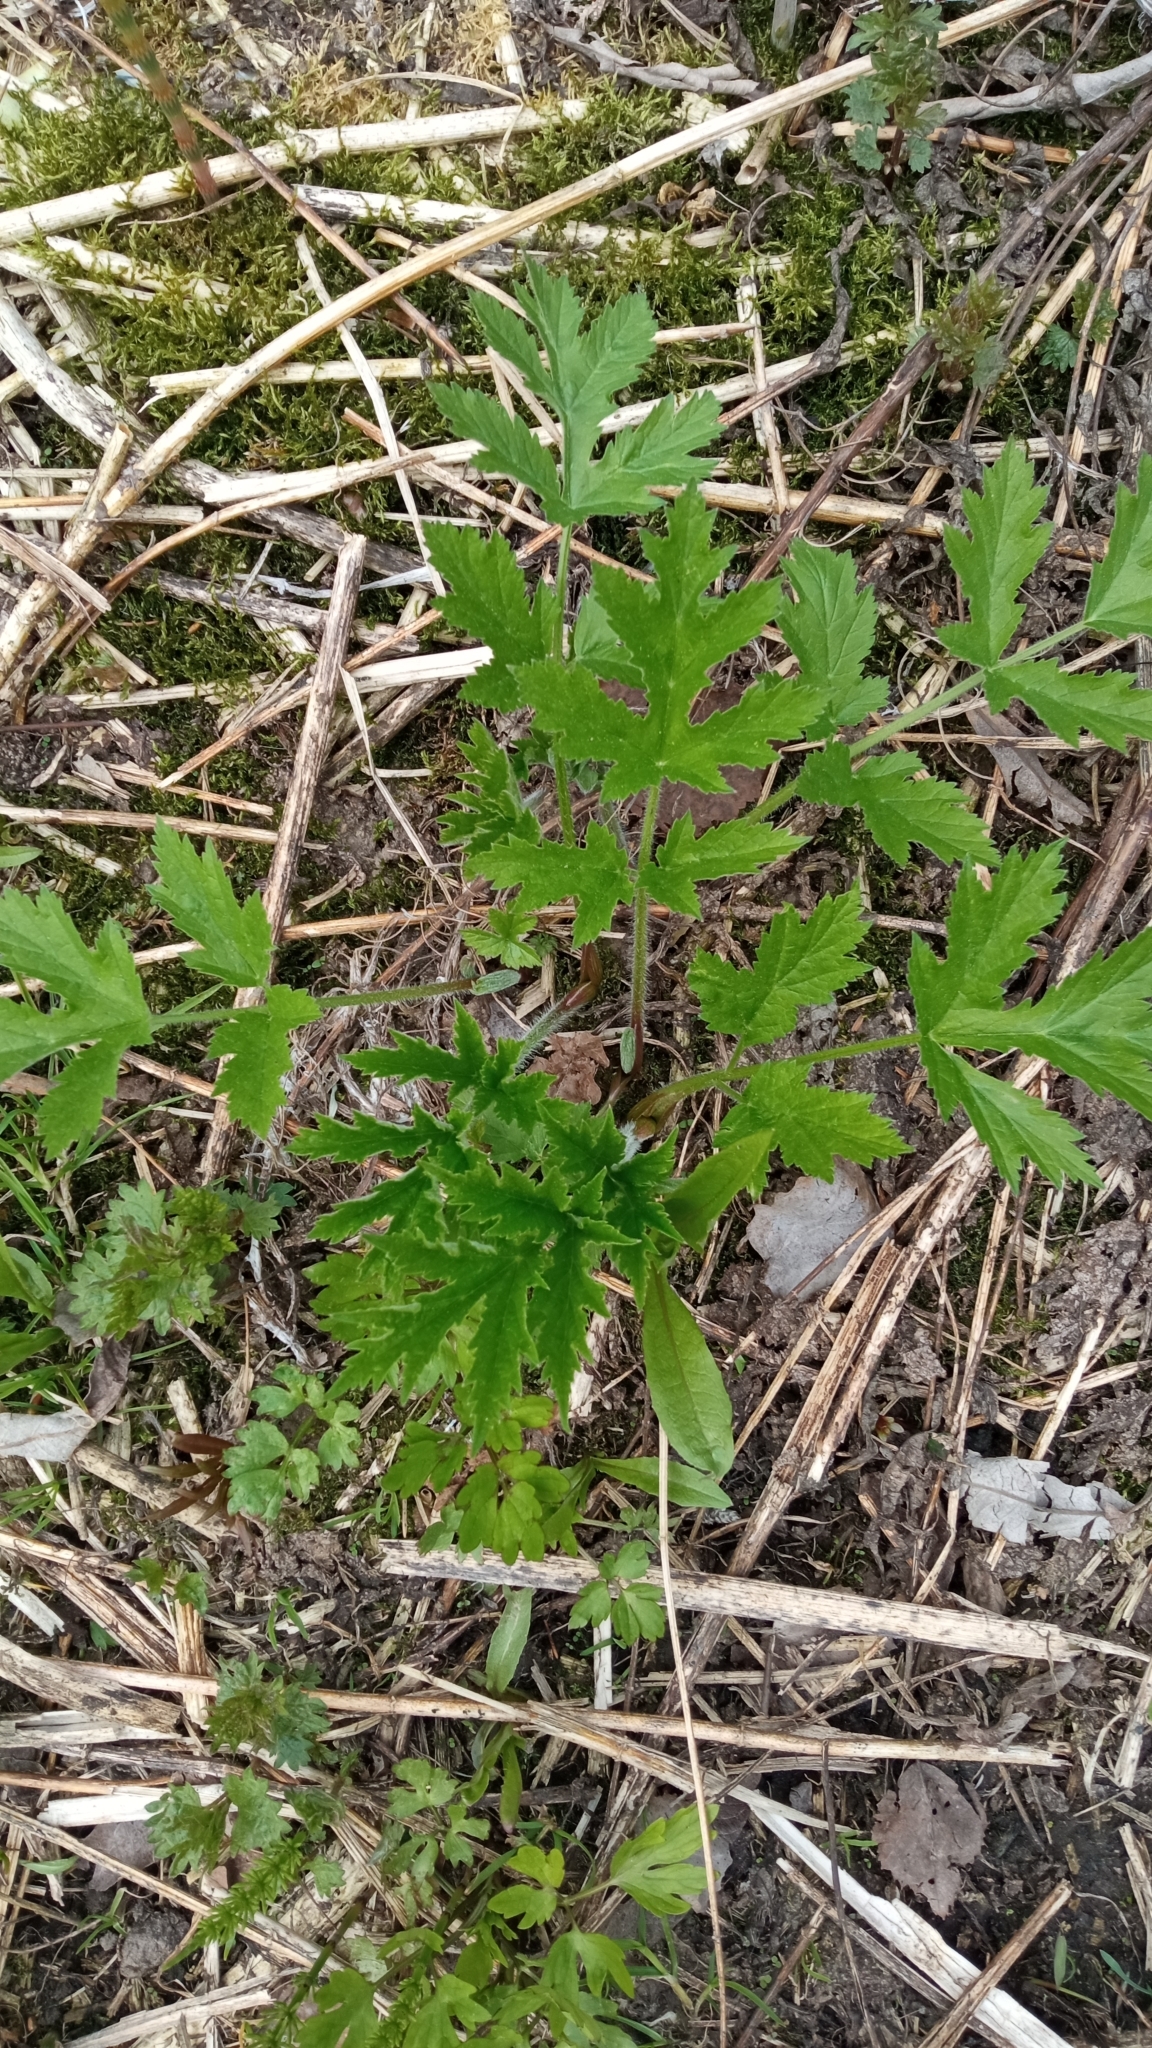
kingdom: Plantae
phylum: Tracheophyta
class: Magnoliopsida
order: Apiales
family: Apiaceae
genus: Heracleum
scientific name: Heracleum sphondylium
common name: Hogweed
